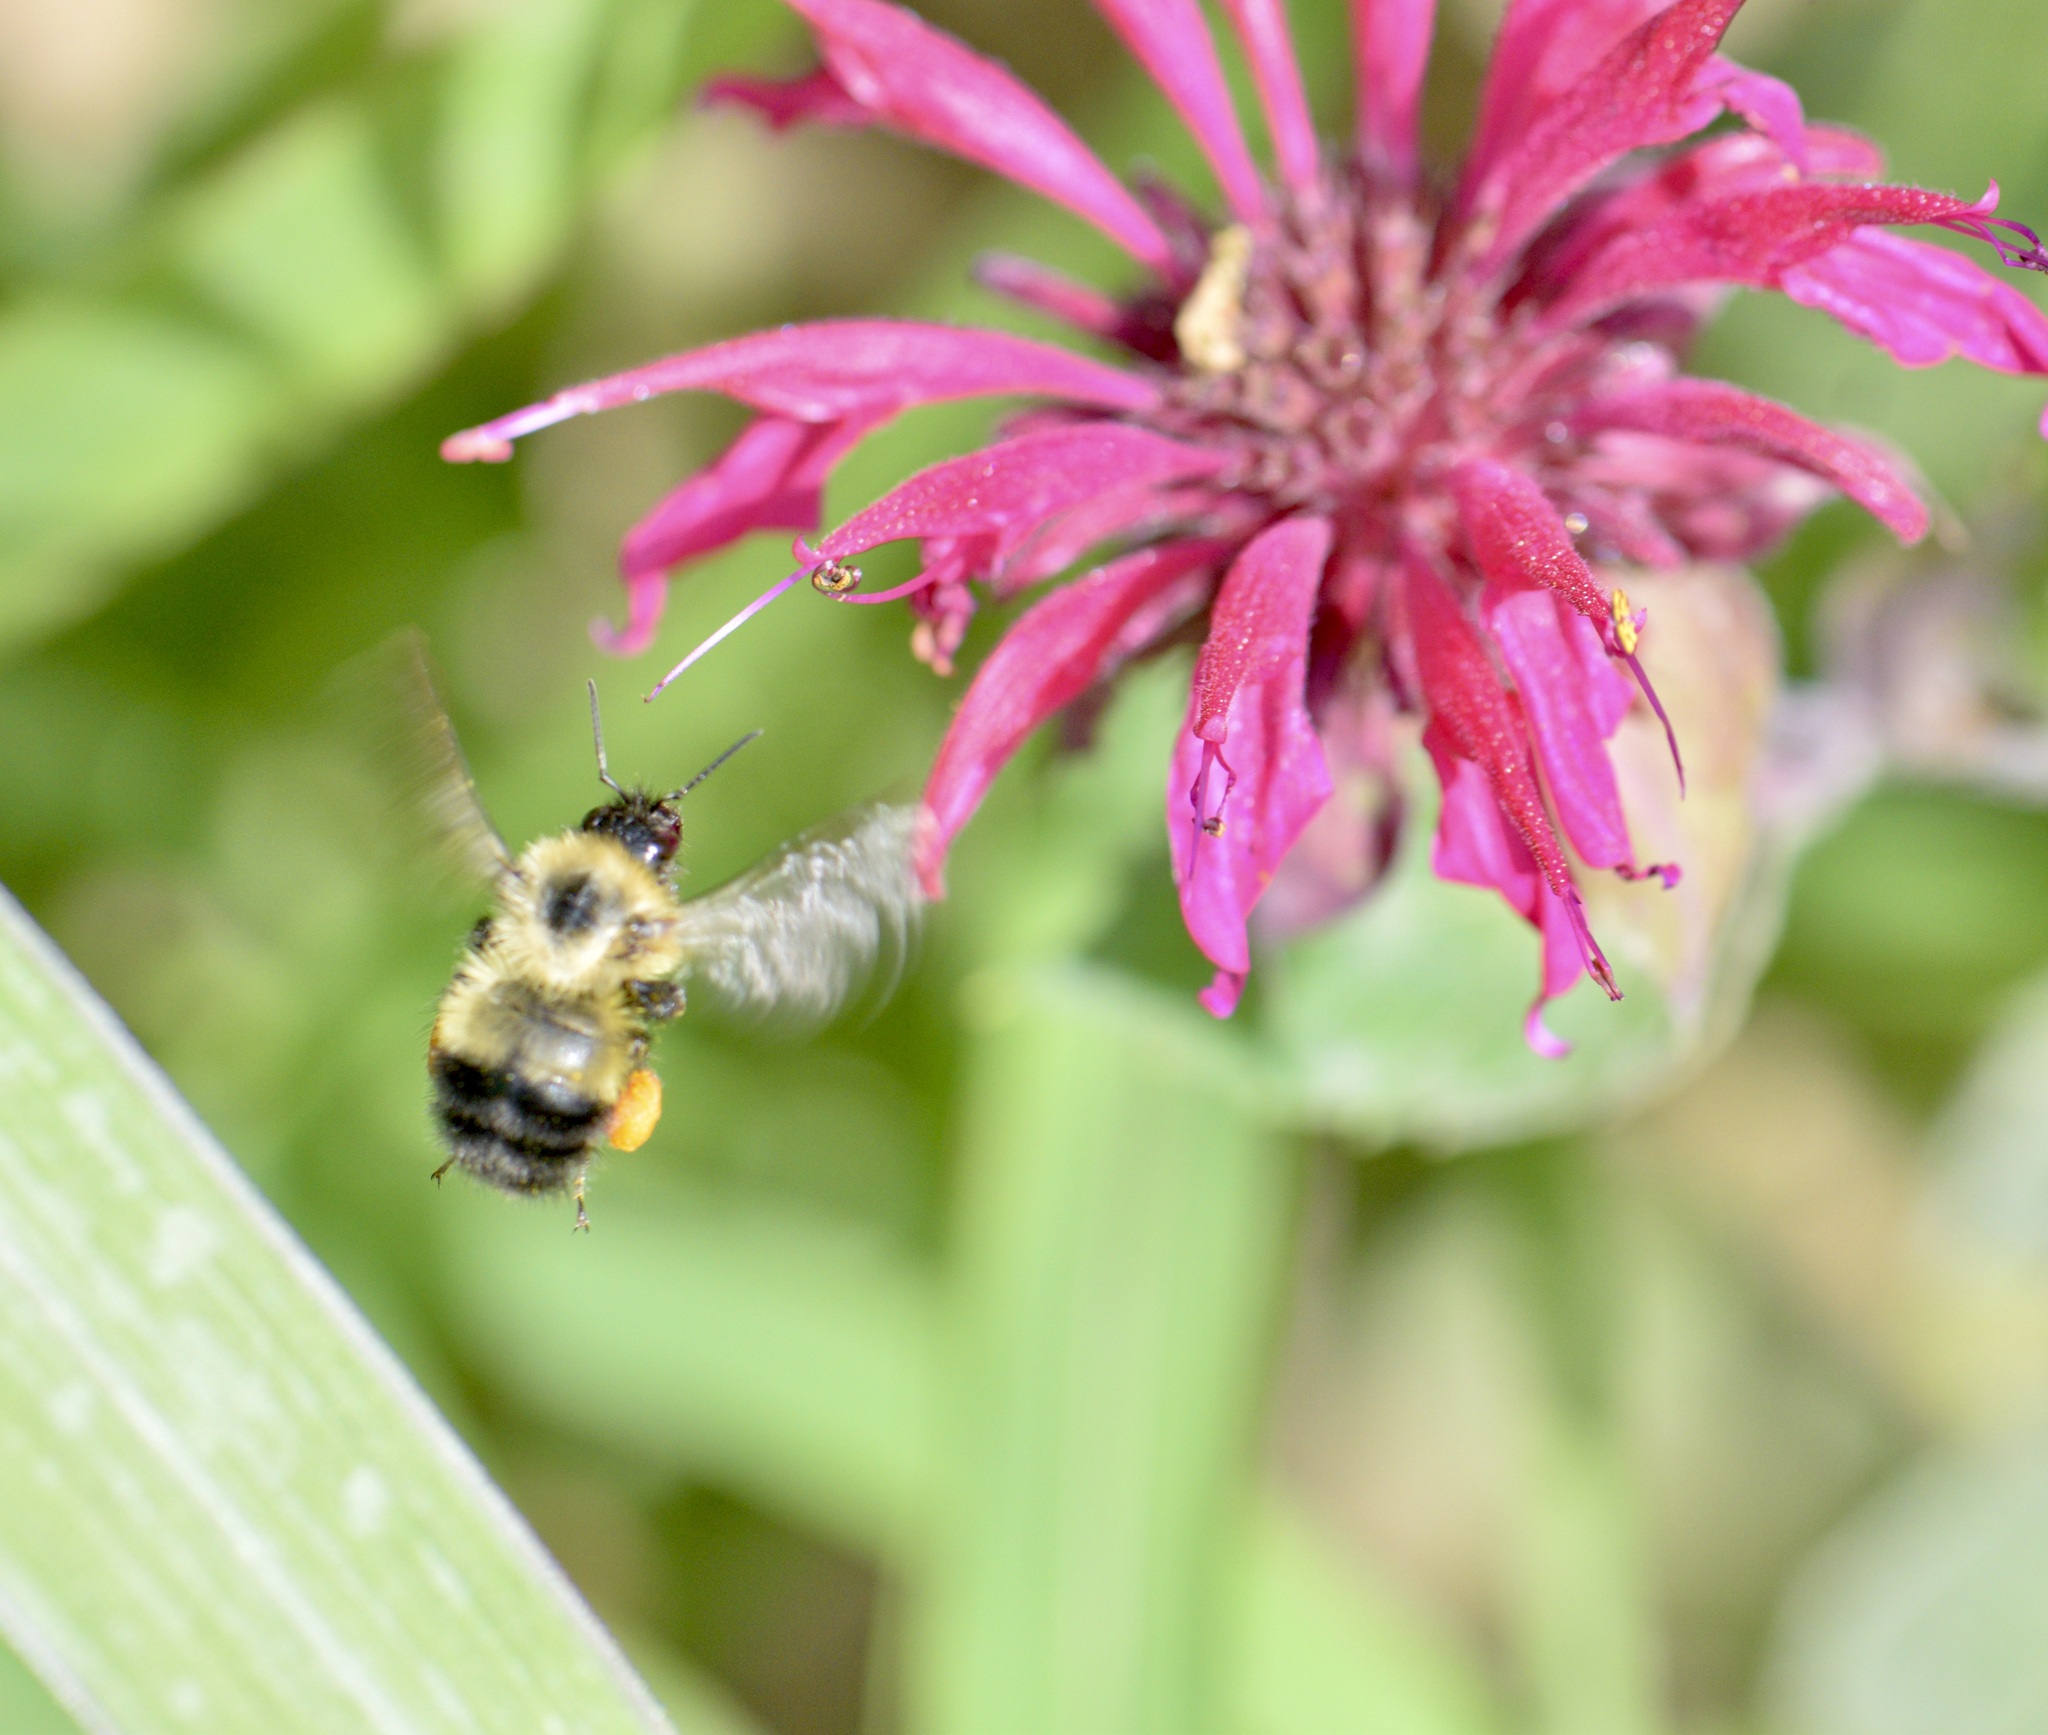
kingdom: Animalia
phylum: Arthropoda
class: Insecta
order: Hymenoptera
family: Apidae
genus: Pyrobombus
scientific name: Pyrobombus
